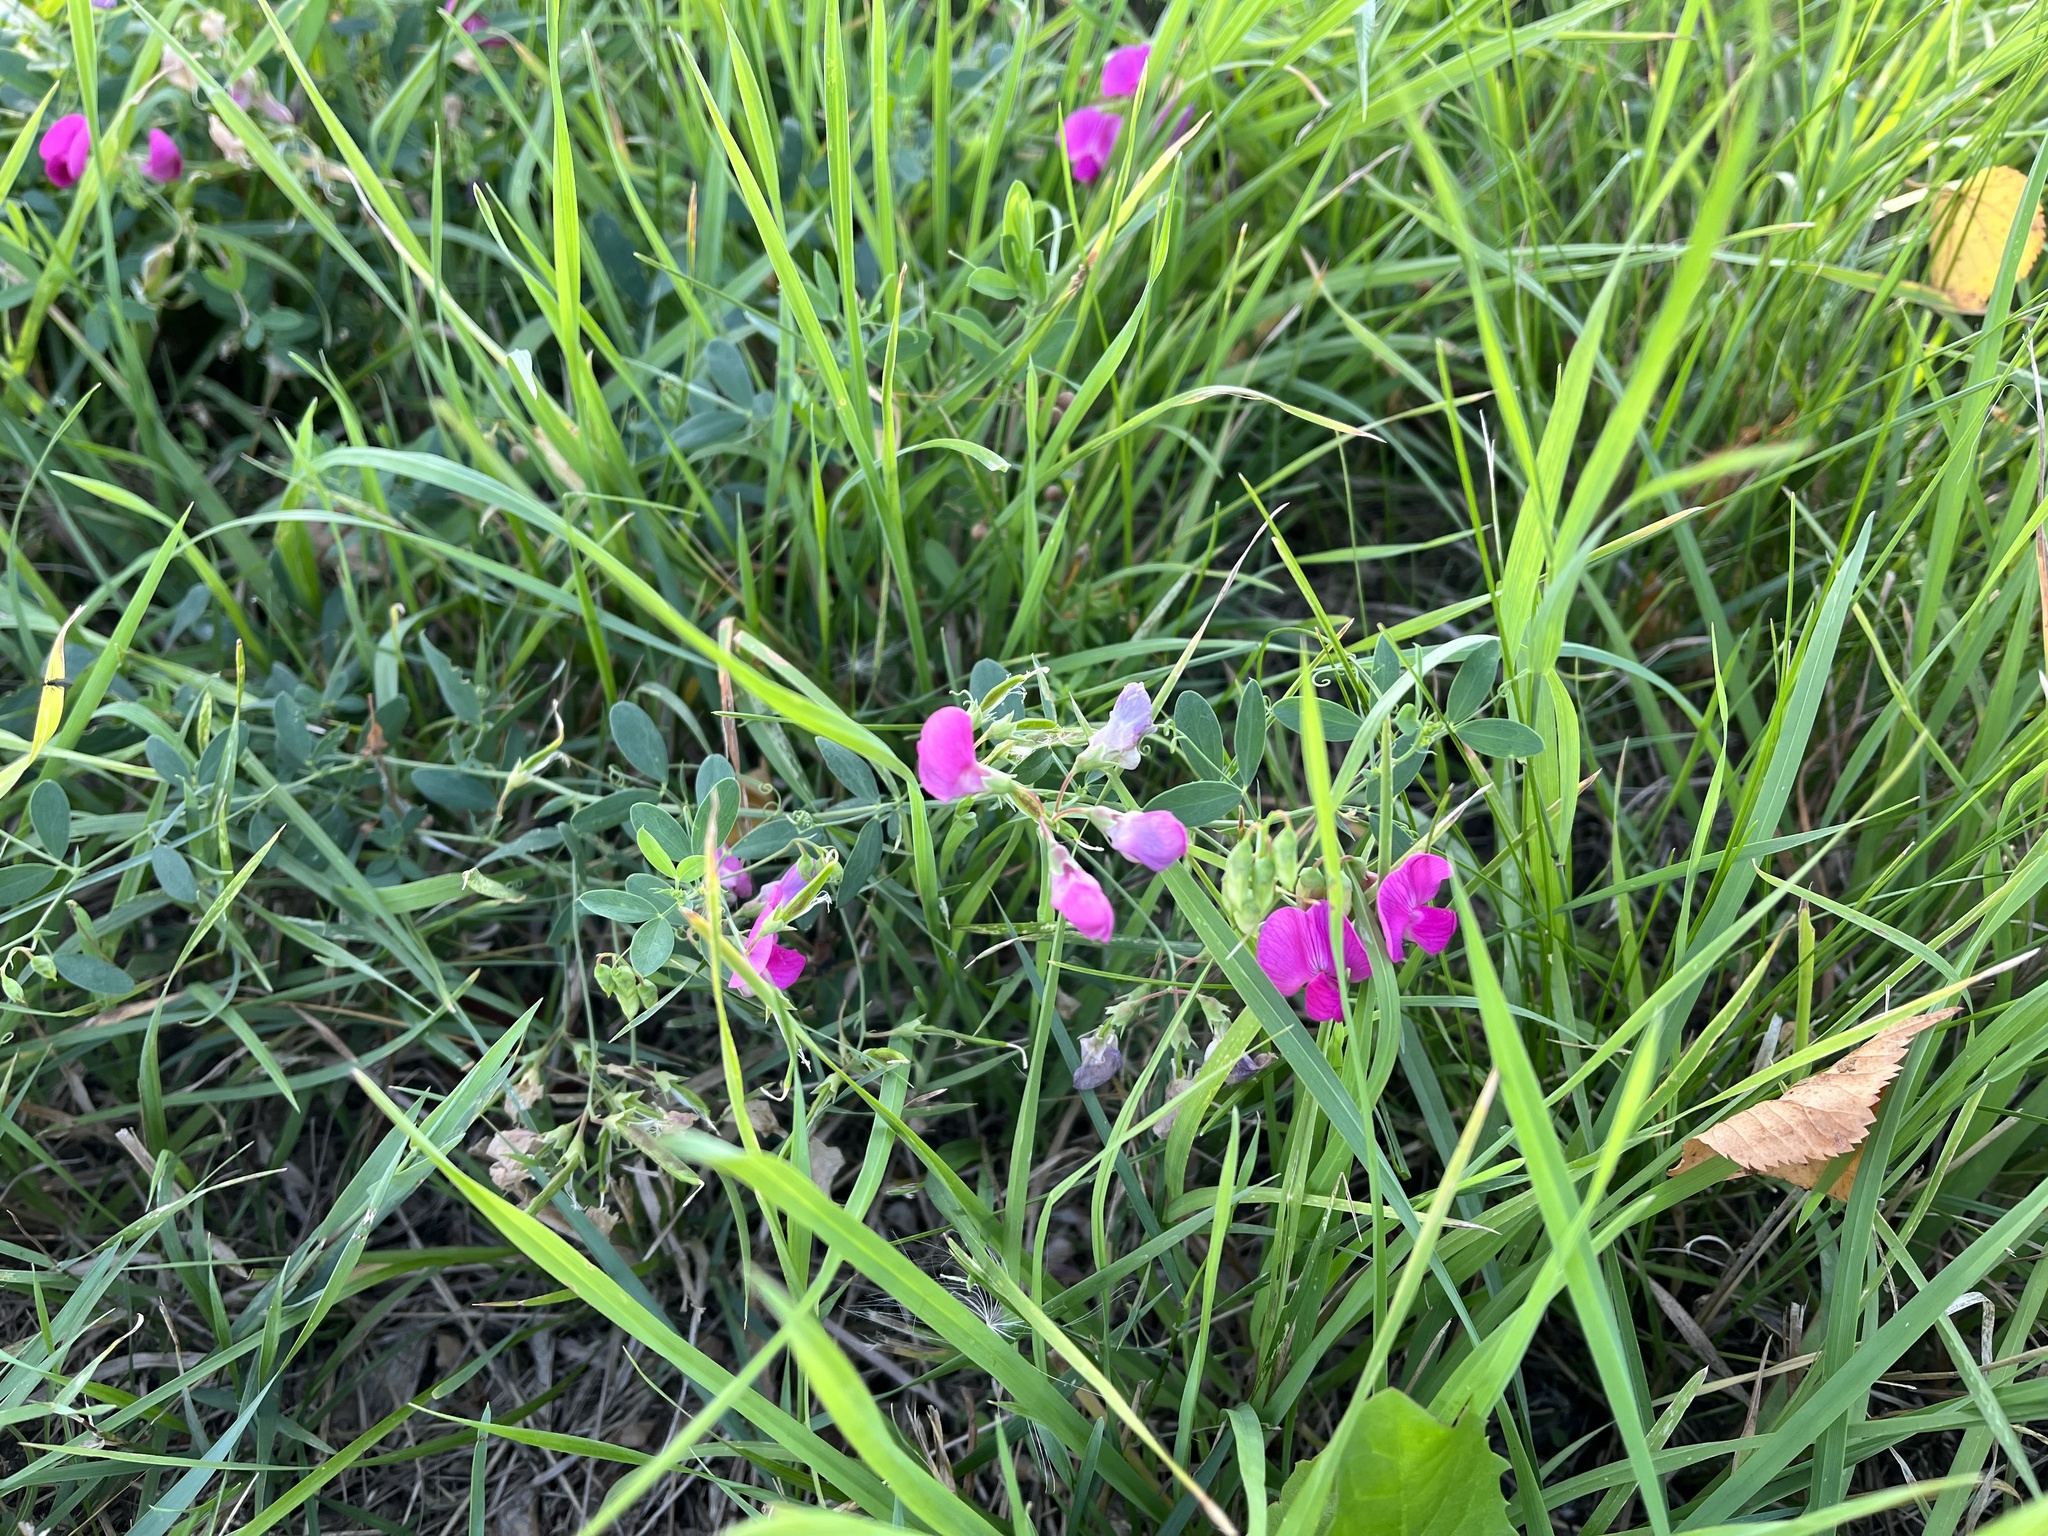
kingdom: Plantae
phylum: Tracheophyta
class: Magnoliopsida
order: Fabales
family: Fabaceae
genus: Lathyrus
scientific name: Lathyrus tuberosus
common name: Tuberous pea
